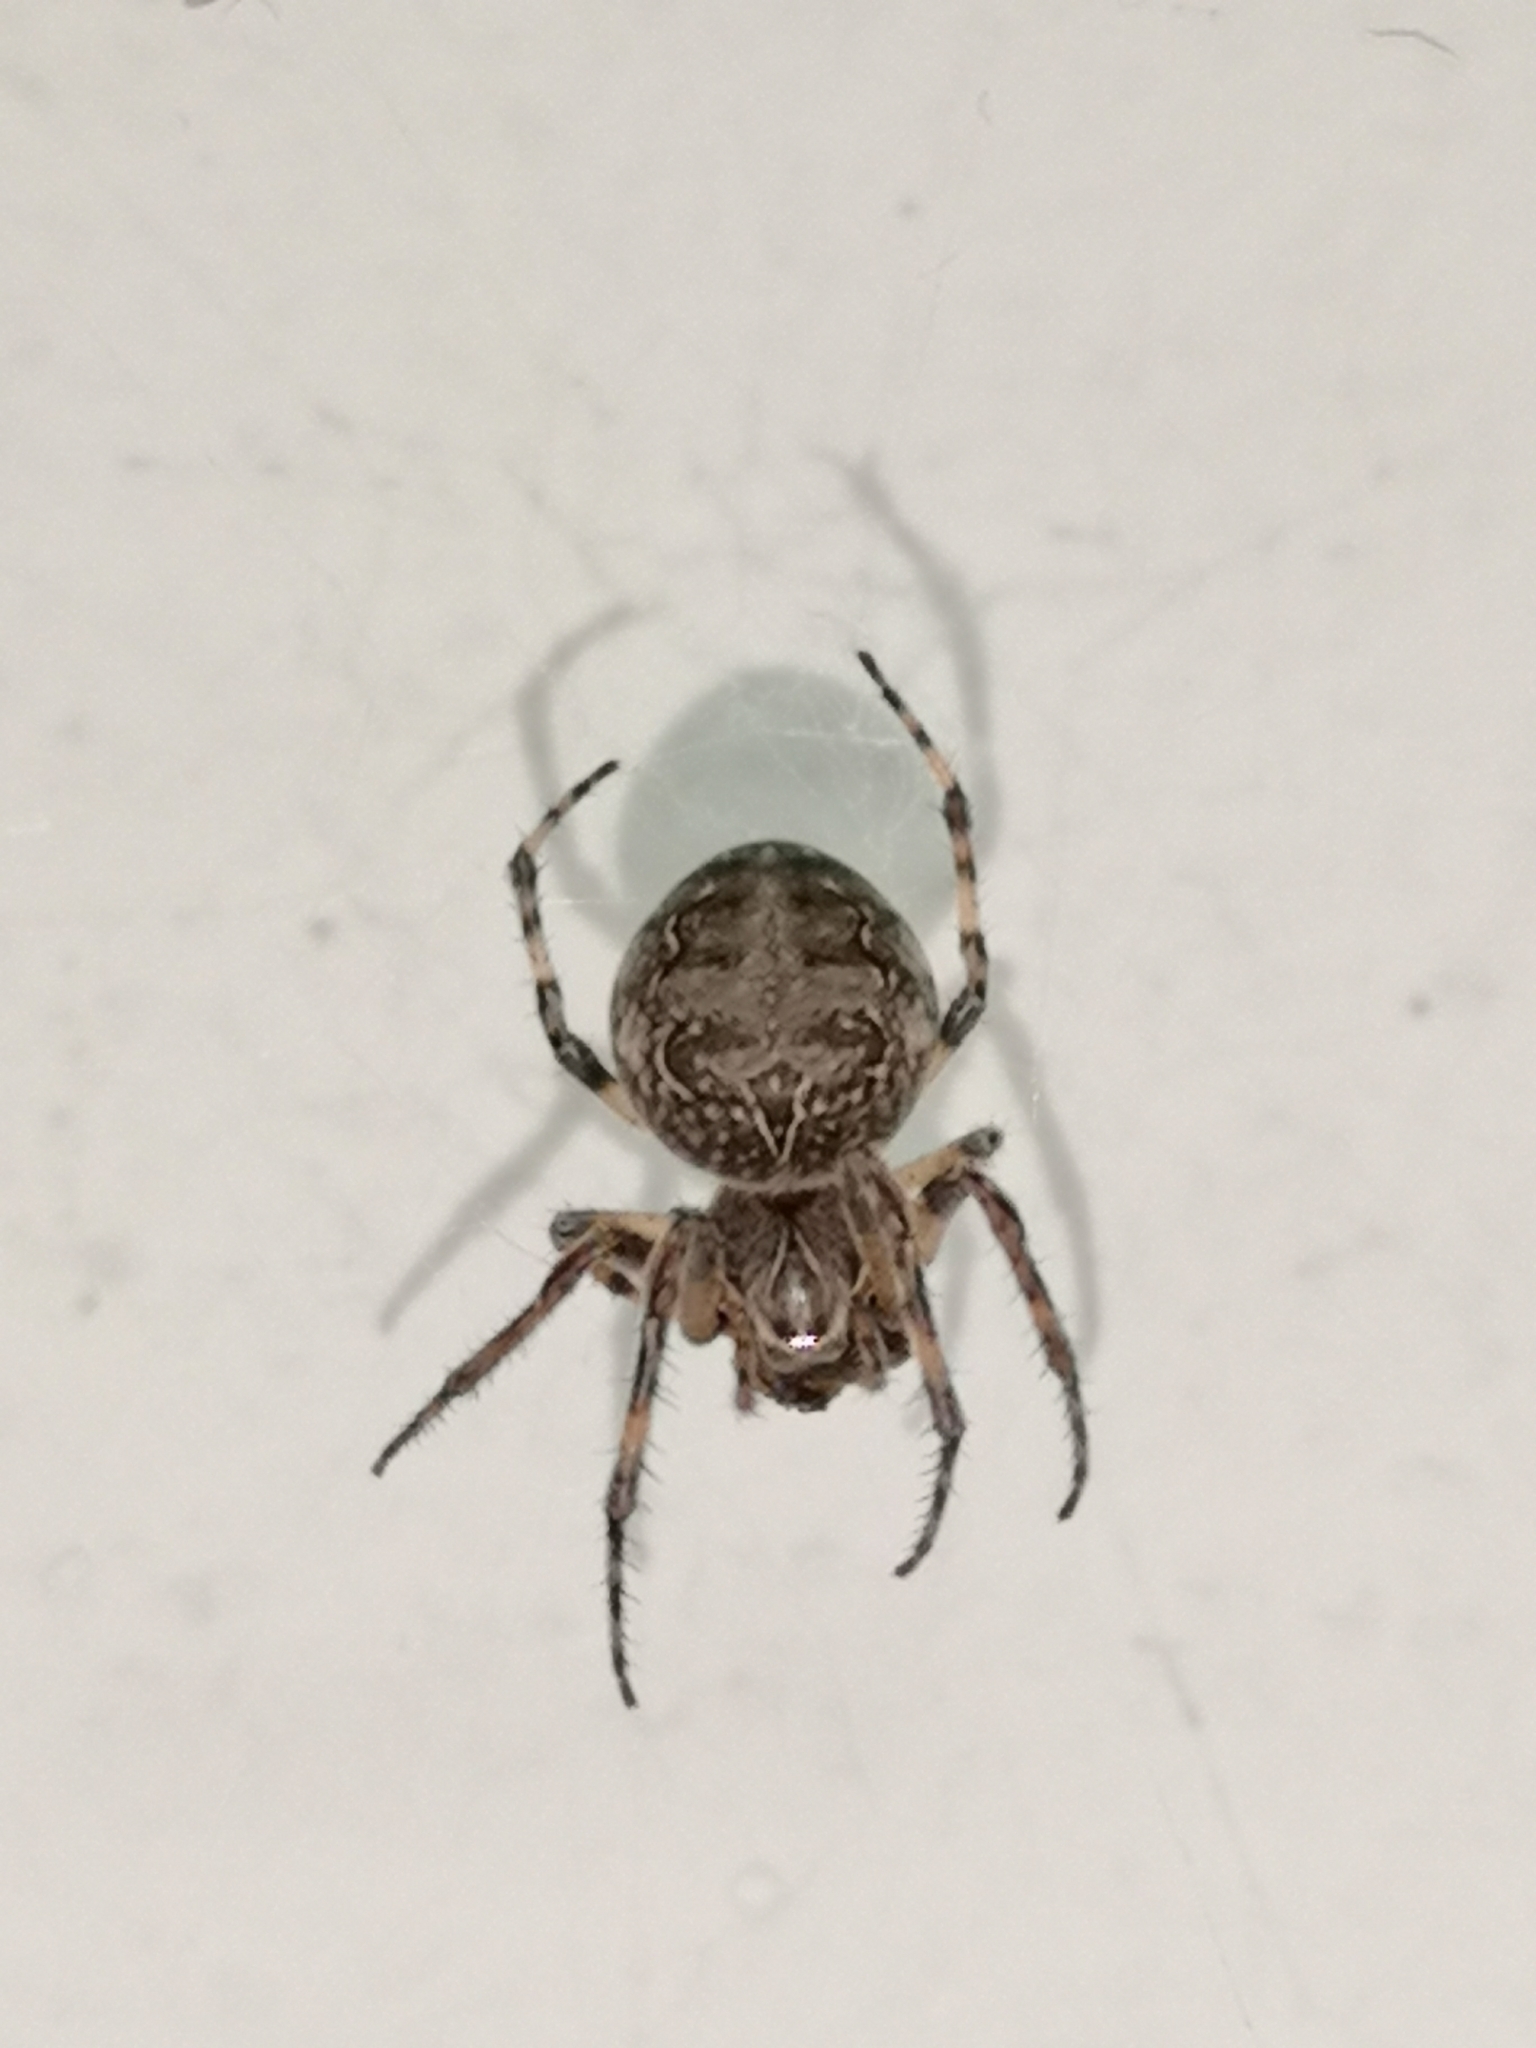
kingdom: Animalia
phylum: Arthropoda
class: Arachnida
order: Araneae
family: Araneidae
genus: Larinioides
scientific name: Larinioides sclopetarius
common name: Bridge orbweaver
